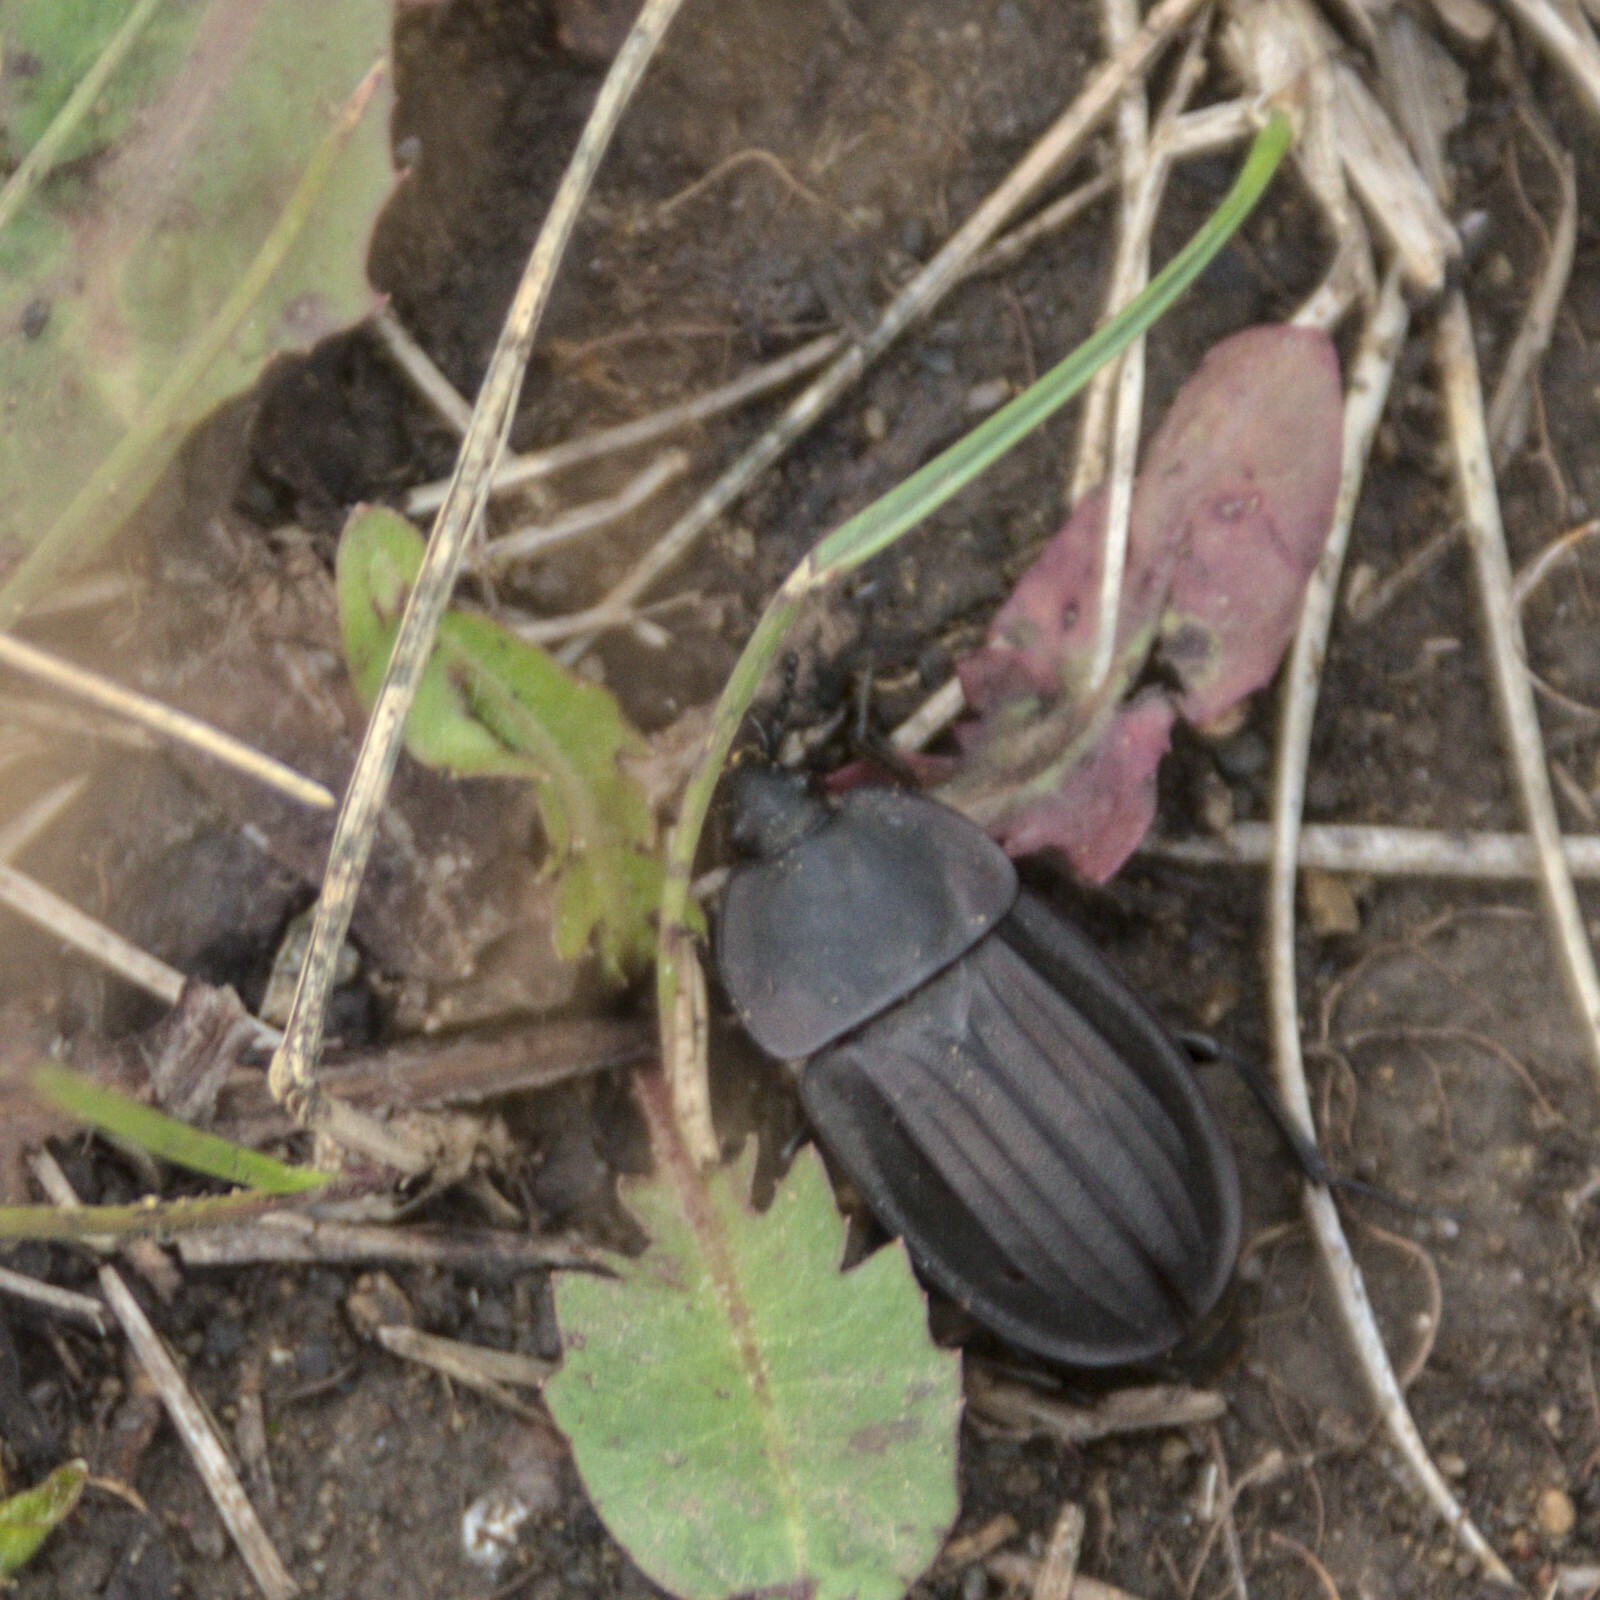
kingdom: Animalia
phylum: Arthropoda
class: Insecta
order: Coleoptera
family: Staphylinidae
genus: Silpha
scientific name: Silpha carinata
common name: Silphid beetle
